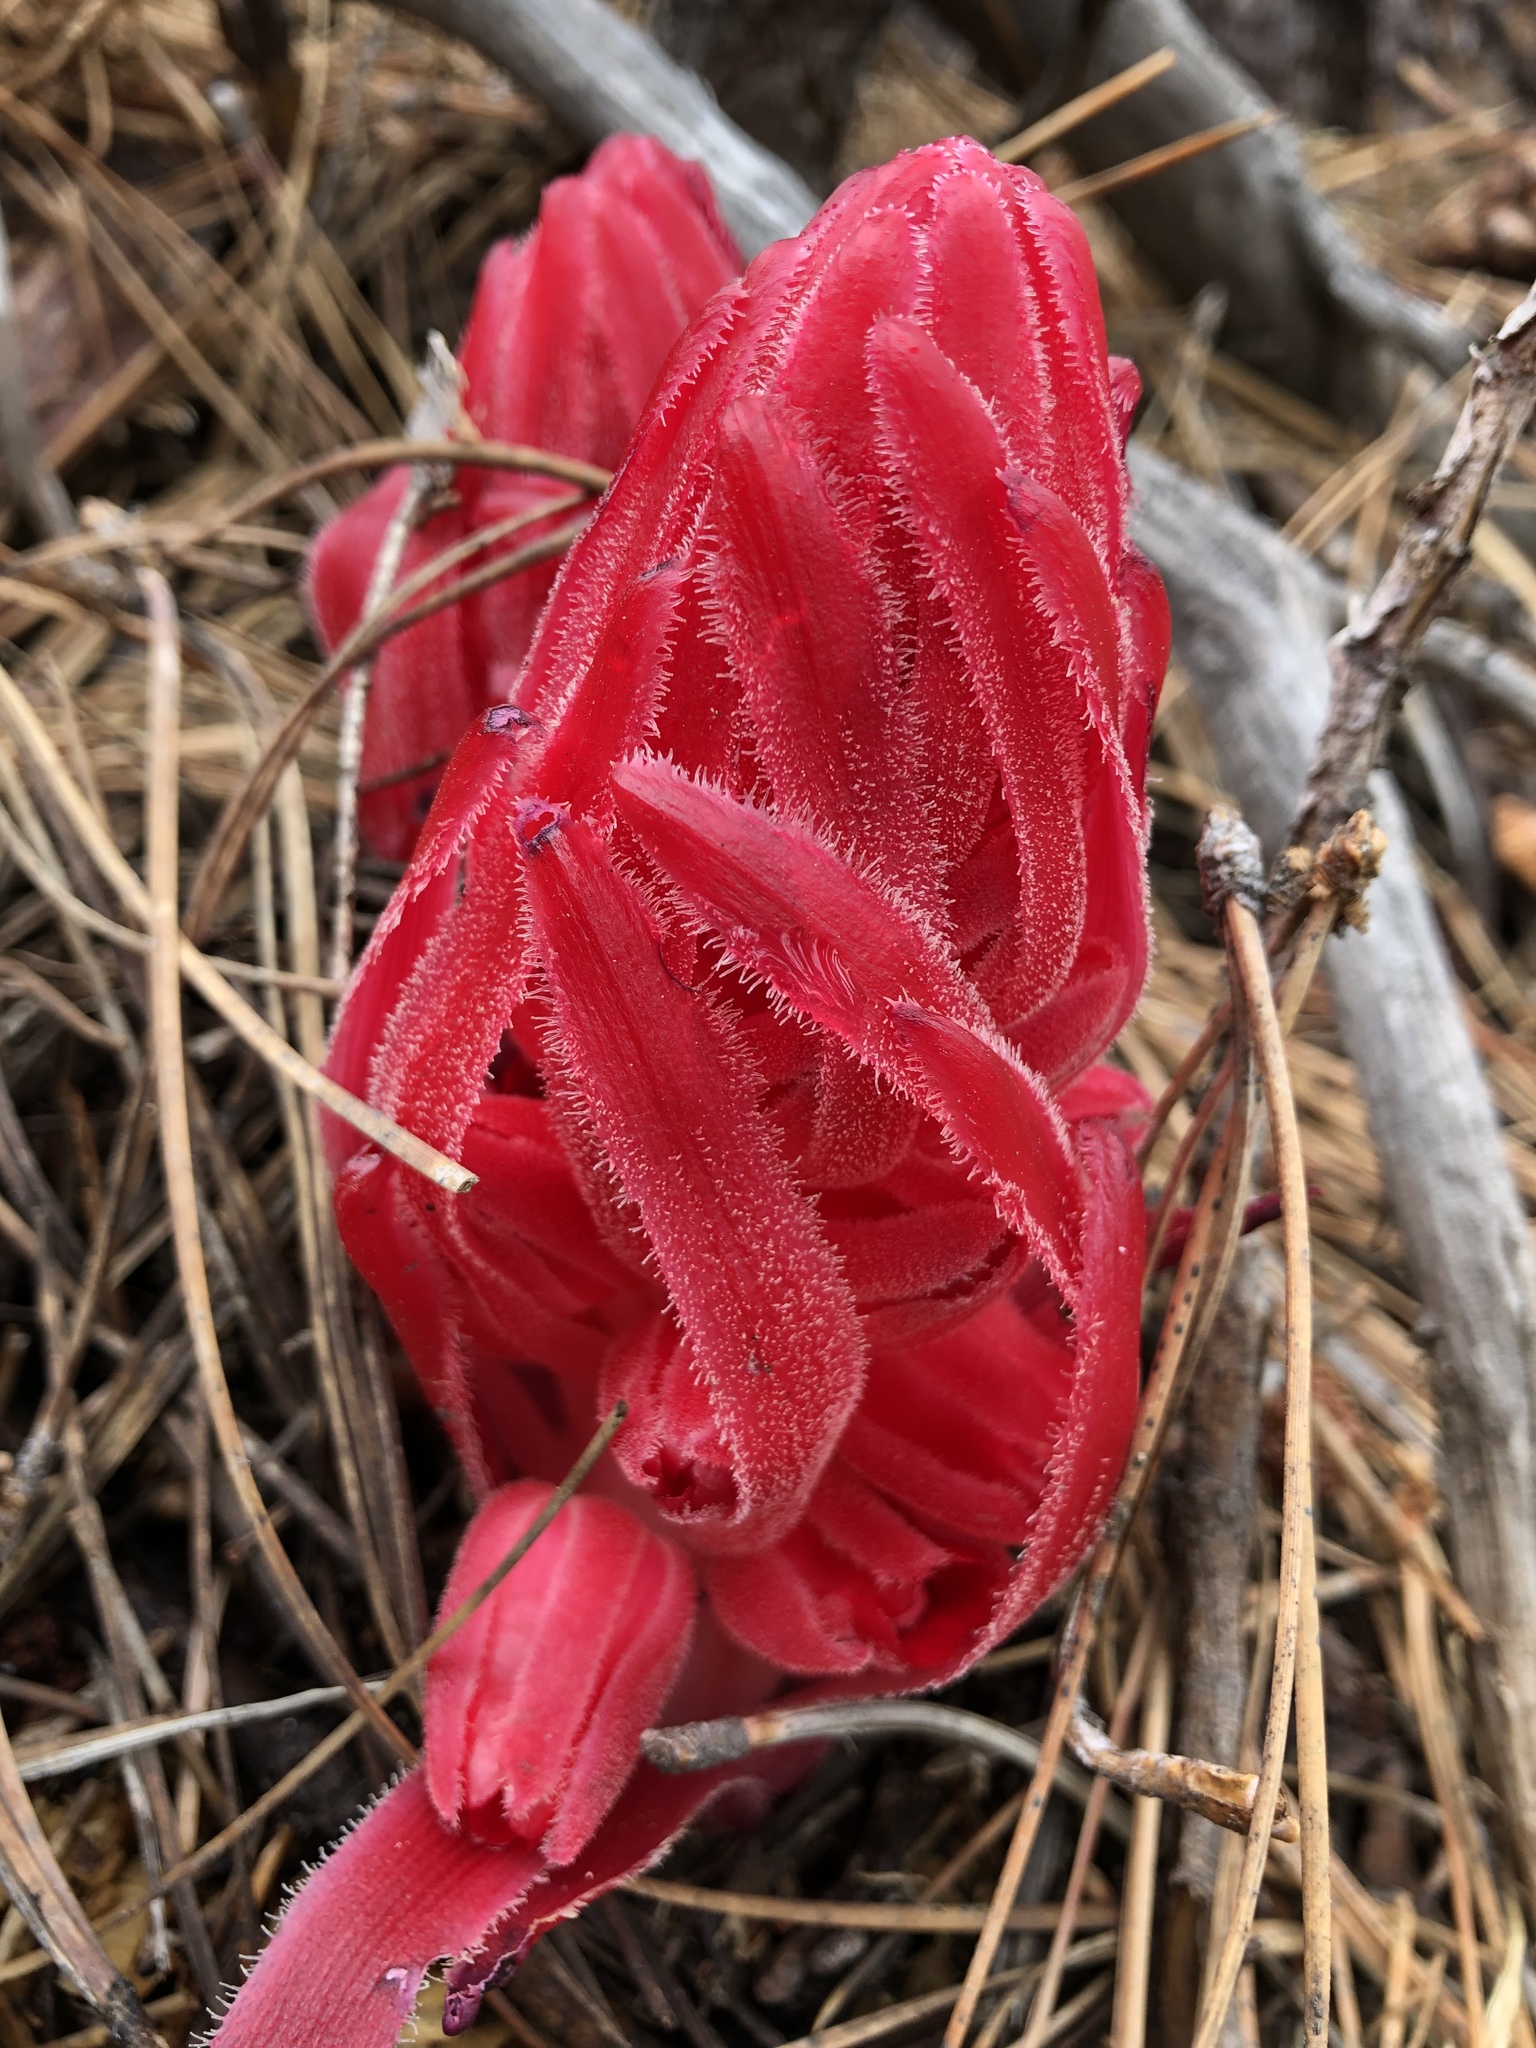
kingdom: Plantae
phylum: Tracheophyta
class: Magnoliopsida
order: Ericales
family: Ericaceae
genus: Sarcodes
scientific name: Sarcodes sanguinea
